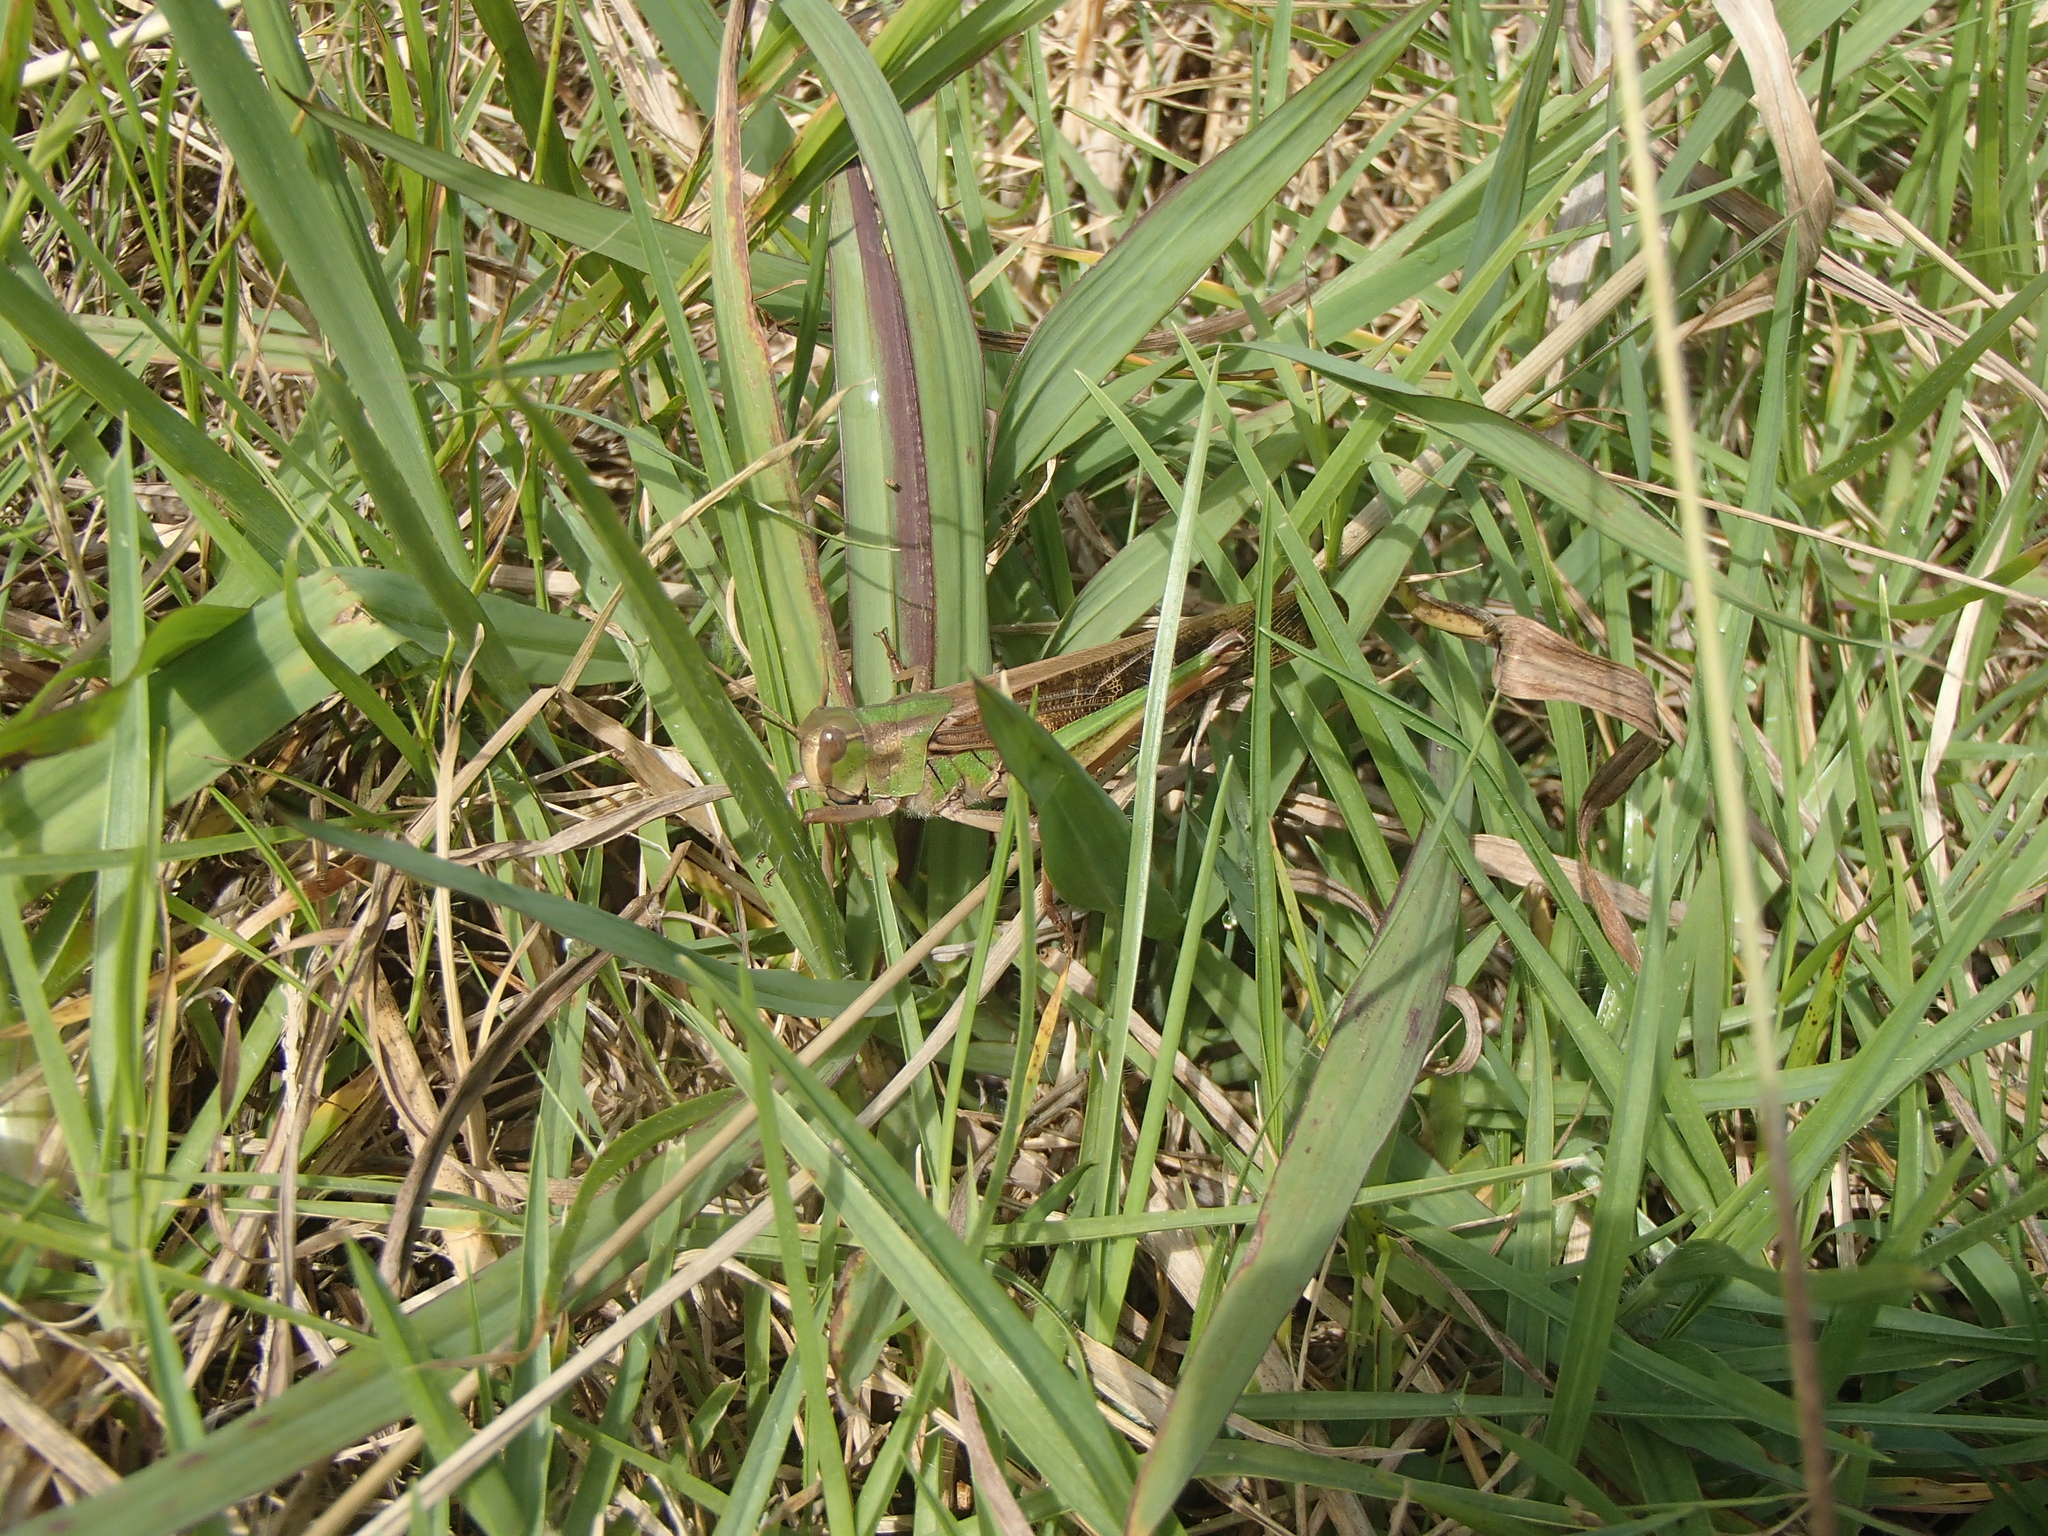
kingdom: Animalia
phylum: Arthropoda
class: Insecta
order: Orthoptera
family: Acrididae
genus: Locusta
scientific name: Locusta migratoria
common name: Migratory locust
